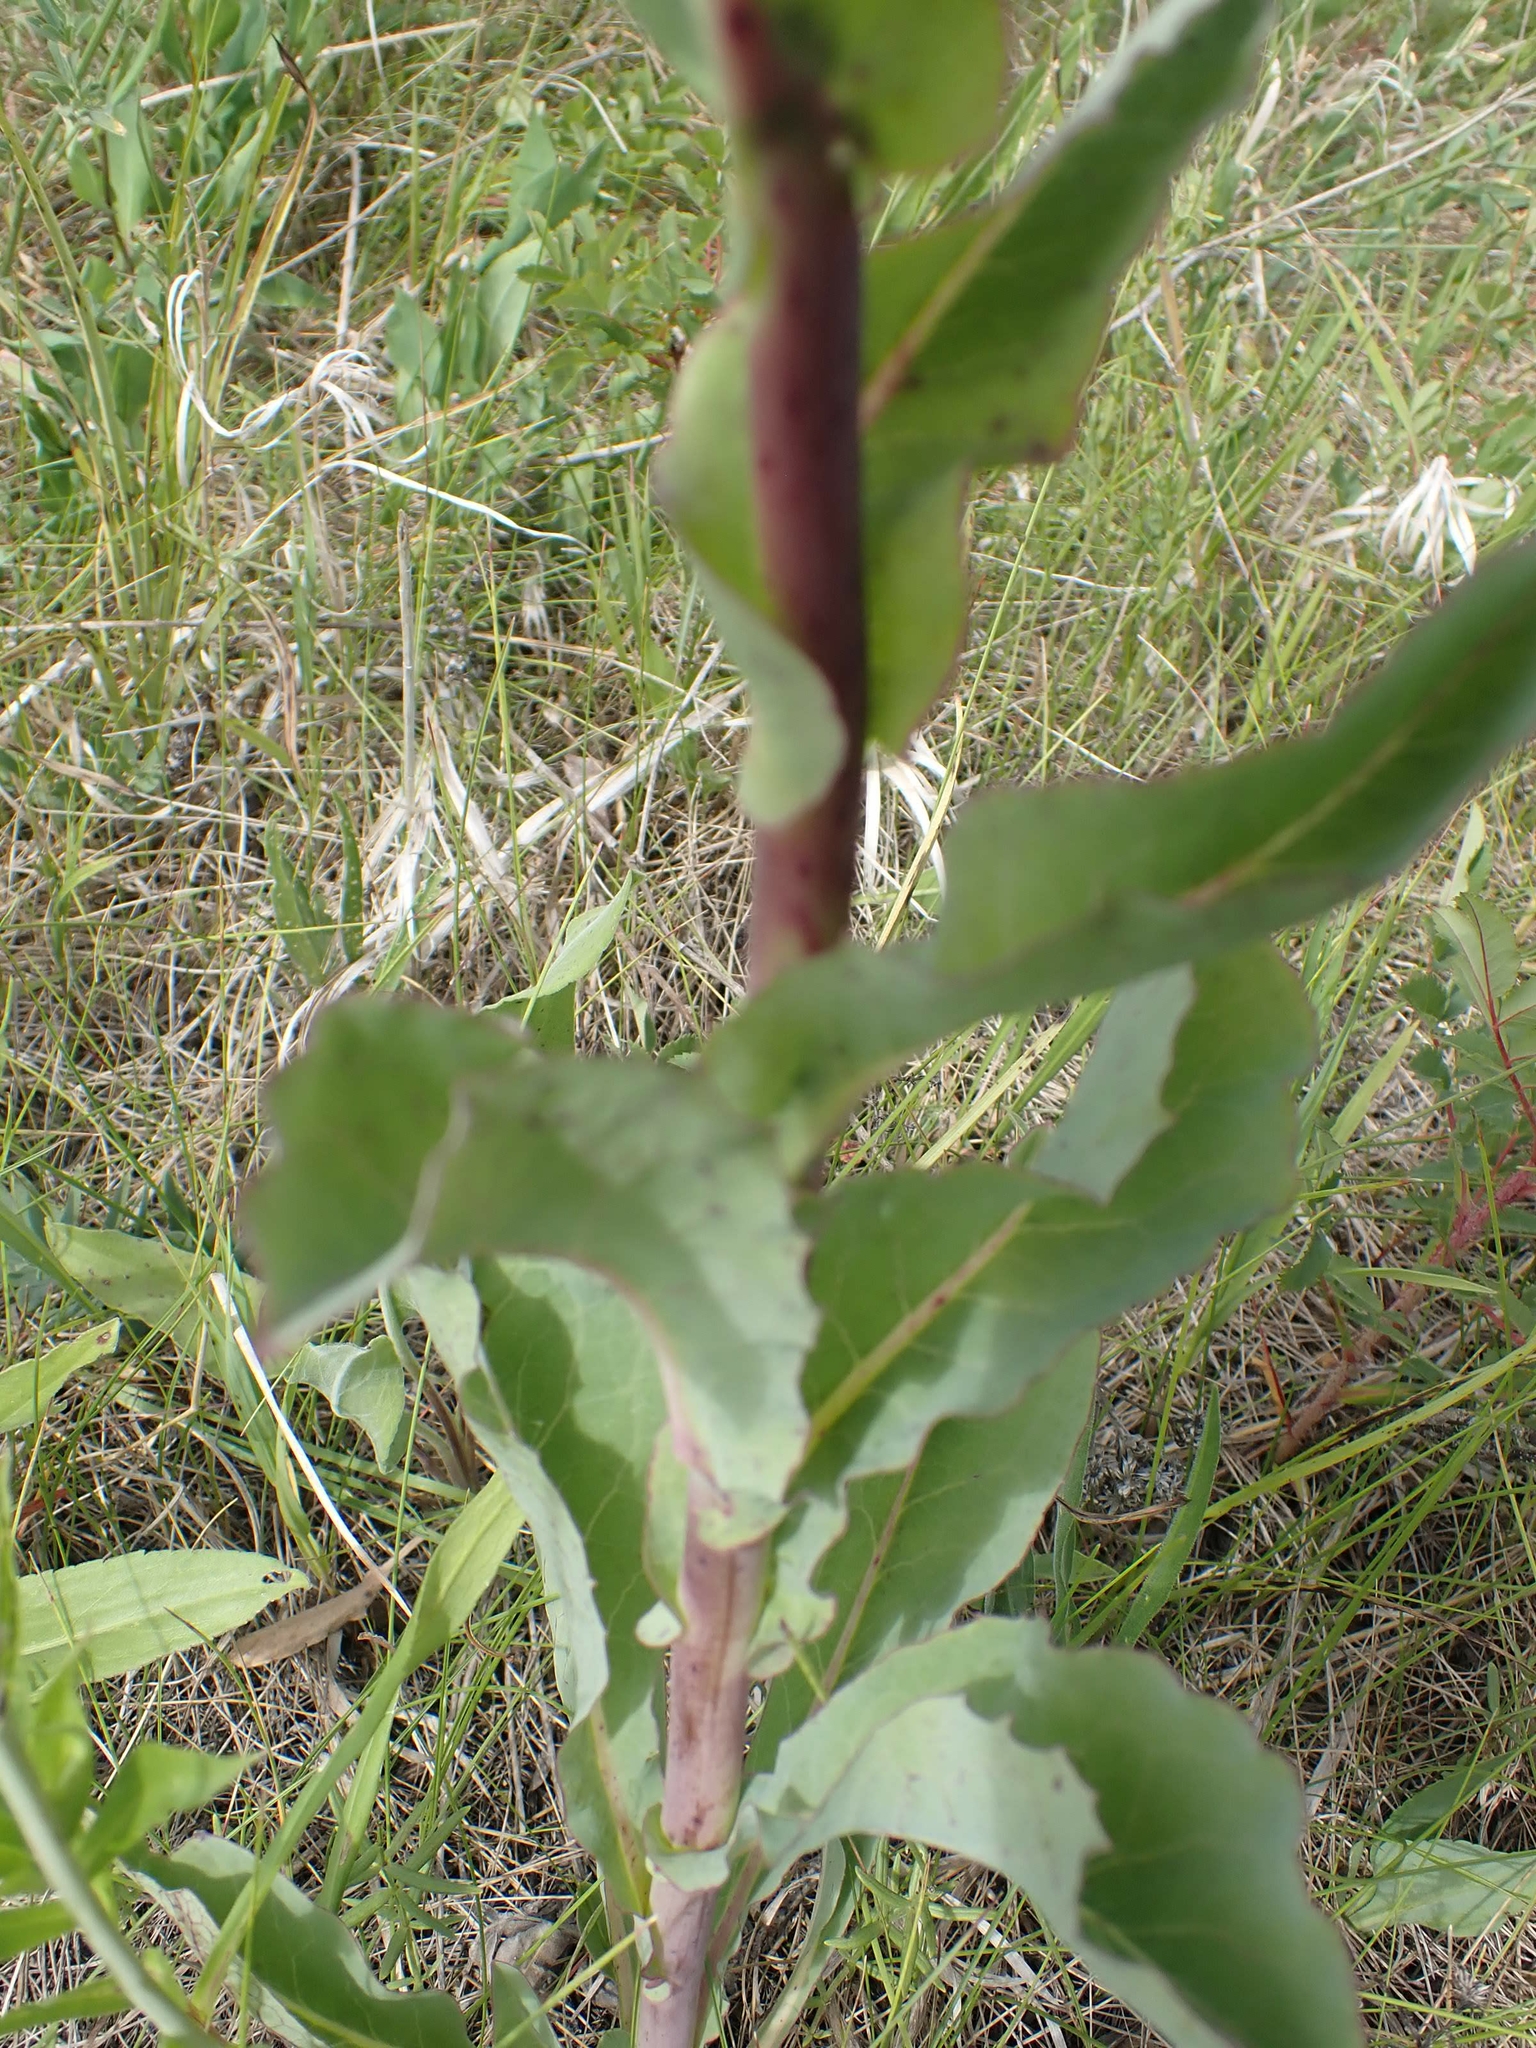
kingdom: Plantae
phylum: Tracheophyta
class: Magnoliopsida
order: Asterales
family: Asteraceae
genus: Nabalus
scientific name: Nabalus racemosus
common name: Glaucous white lettuce
